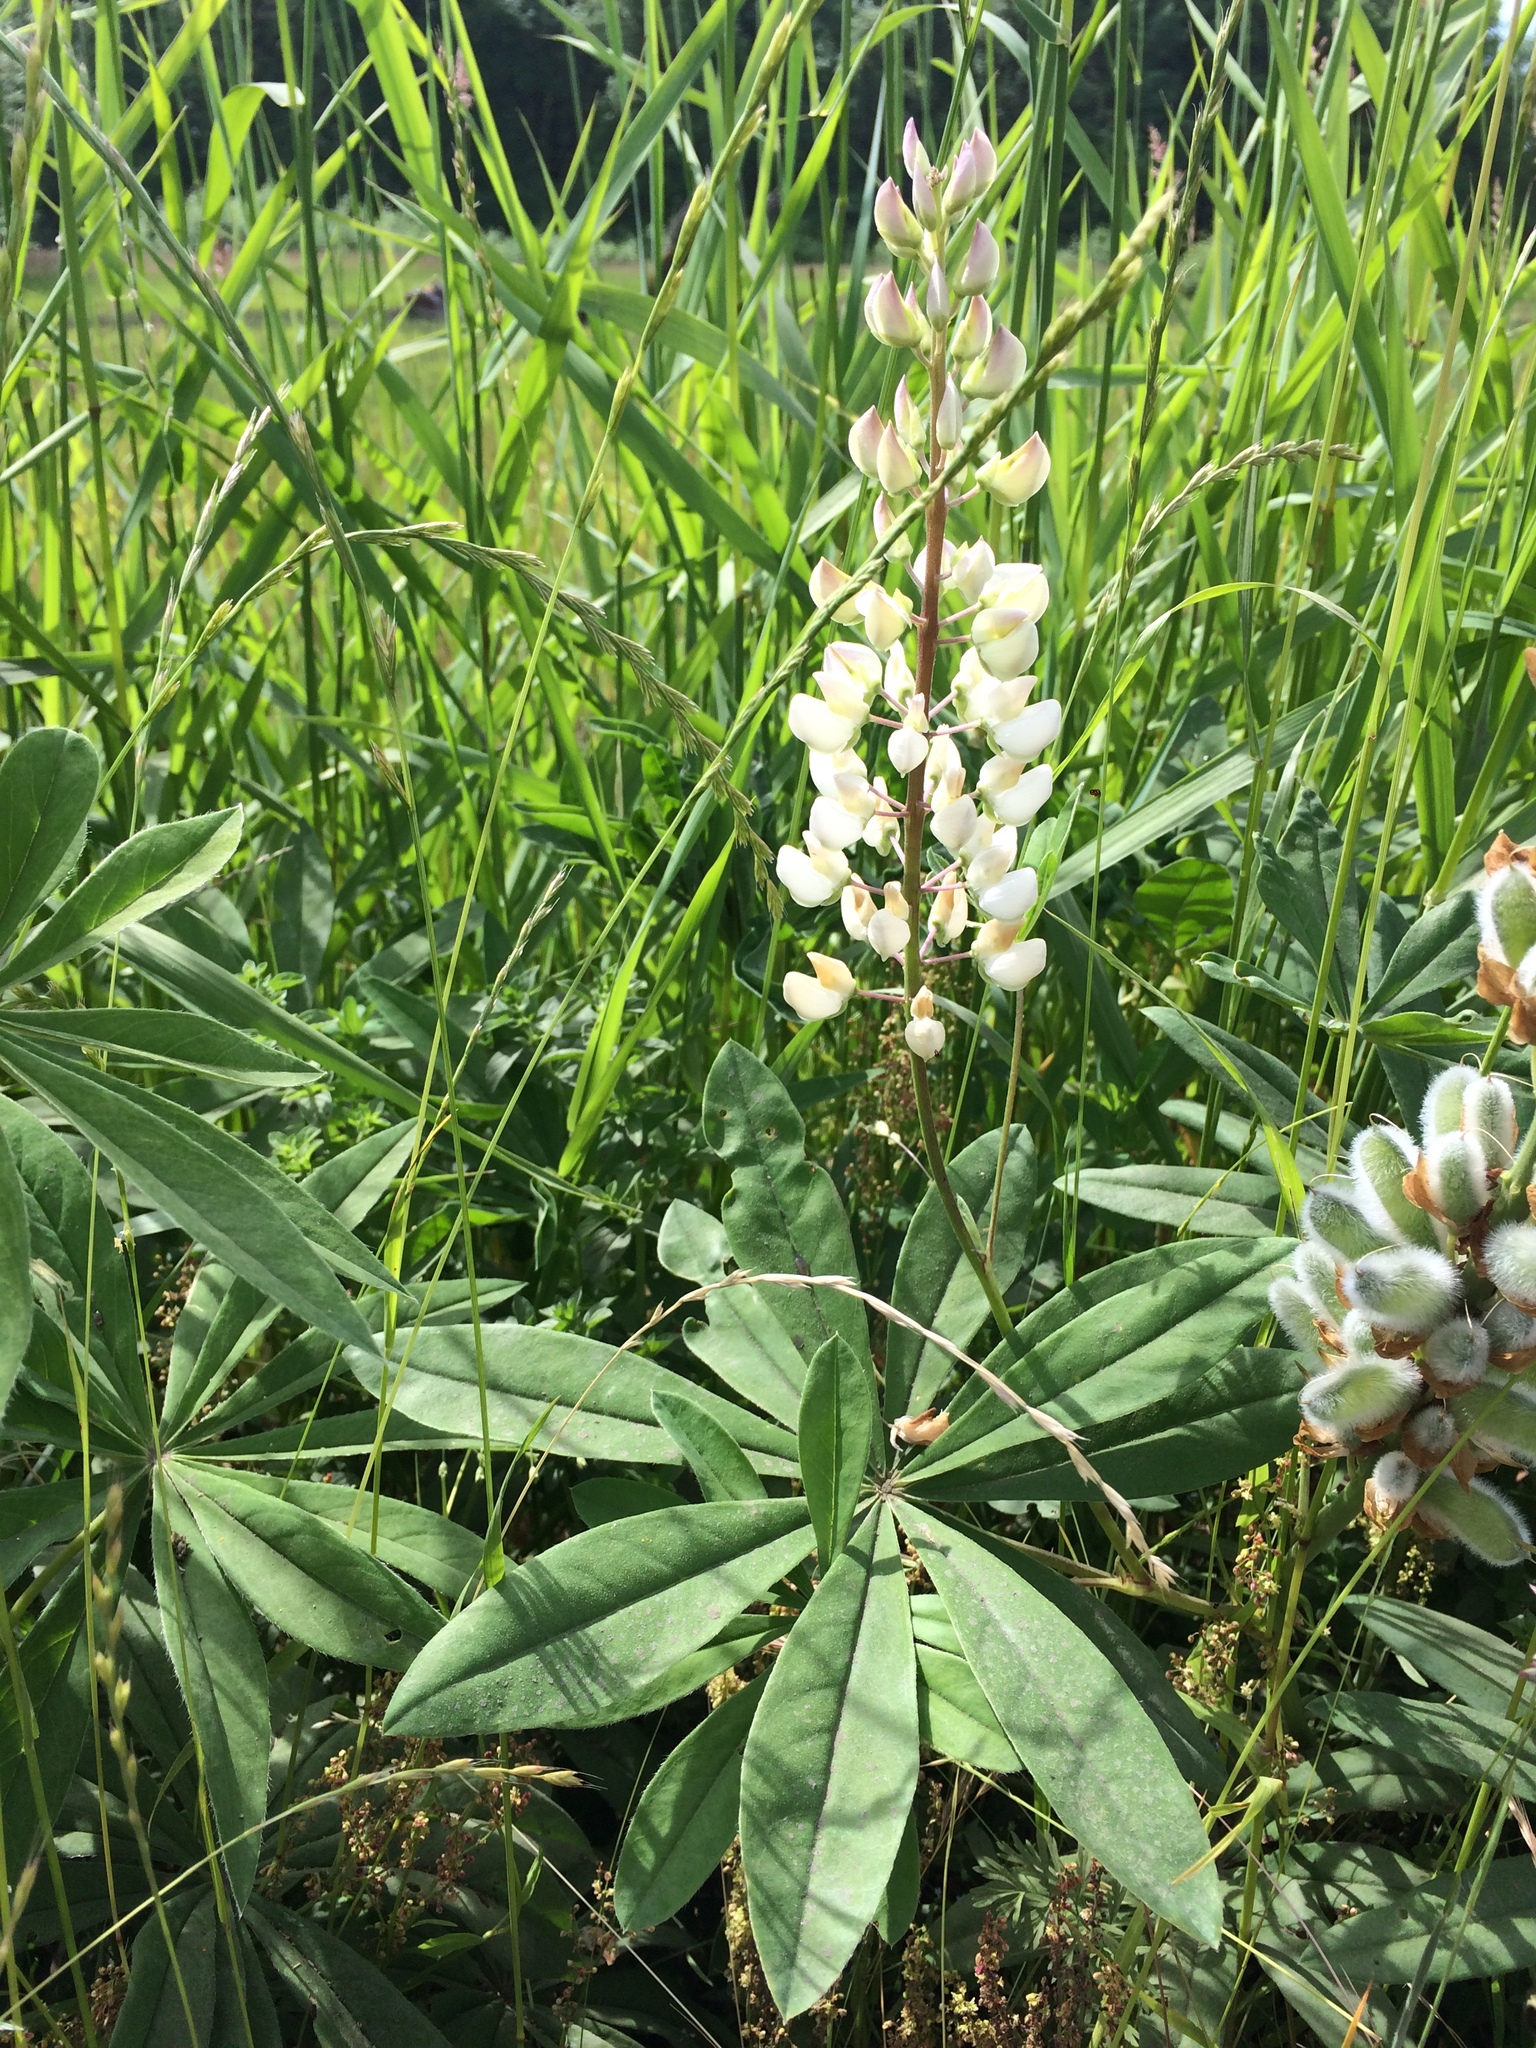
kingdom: Plantae
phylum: Tracheophyta
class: Magnoliopsida
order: Fabales
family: Fabaceae
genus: Lupinus
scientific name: Lupinus polyphyllus
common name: Garden lupin
